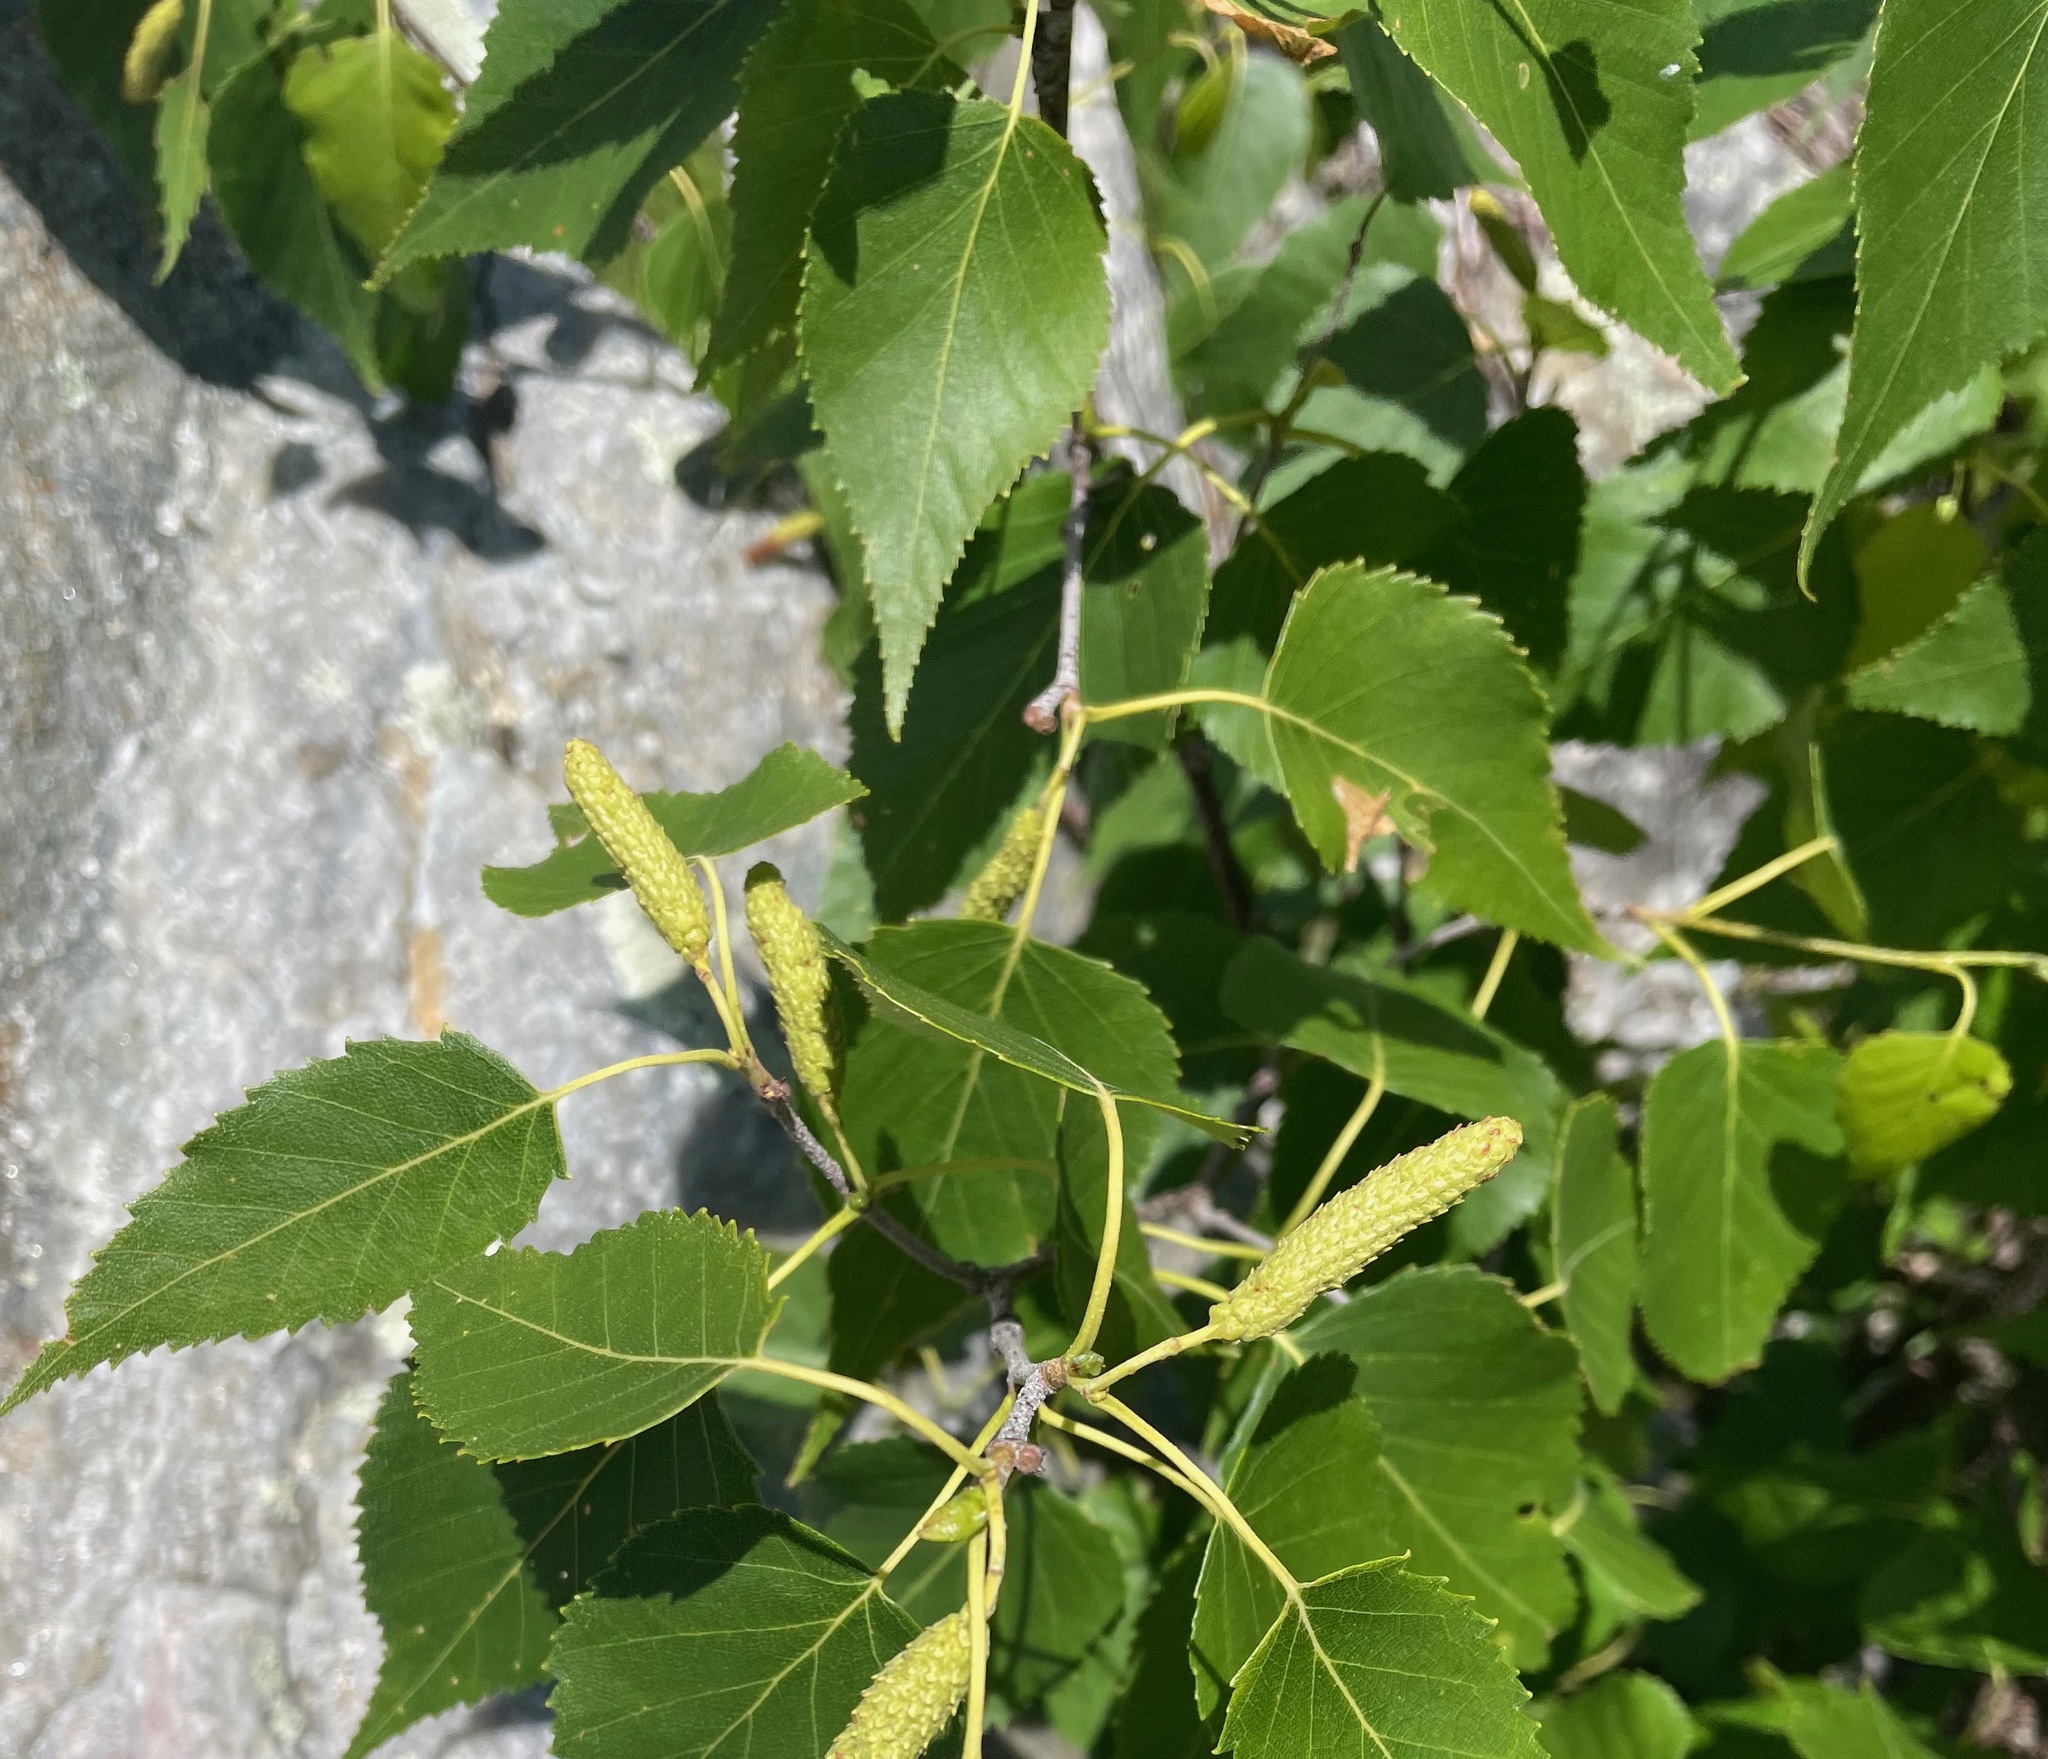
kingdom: Plantae
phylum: Tracheophyta
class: Magnoliopsida
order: Fagales
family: Betulaceae
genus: Betula
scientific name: Betula populifolia
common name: Fire birch
